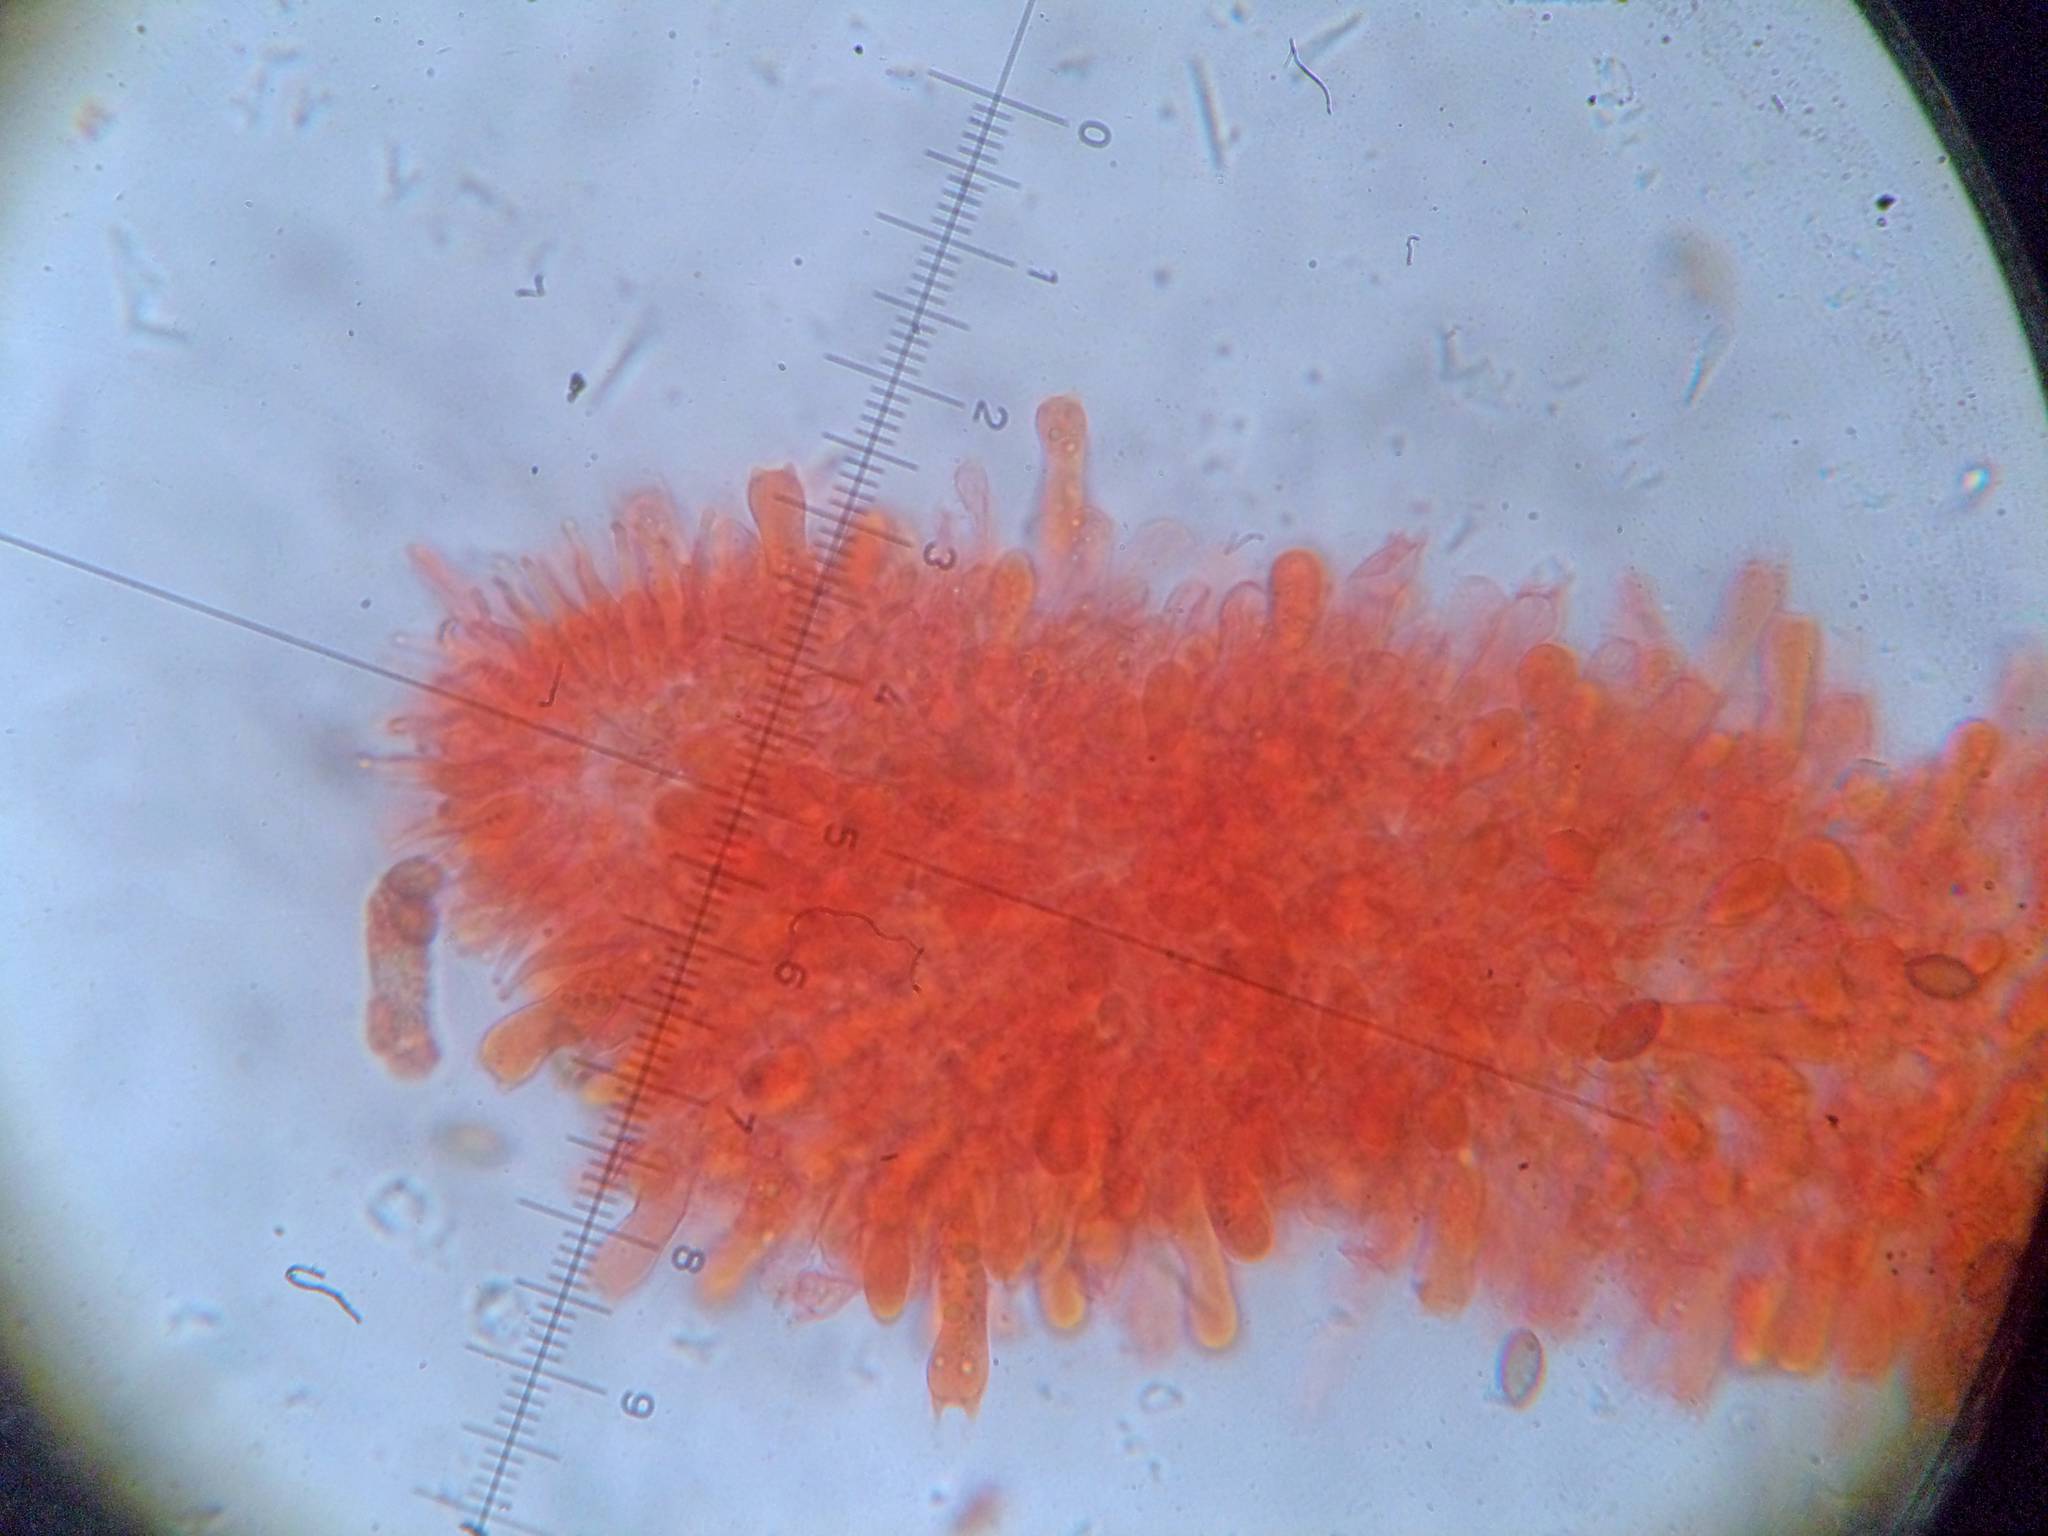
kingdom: Fungi
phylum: Basidiomycota
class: Agaricomycetes
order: Agaricales
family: Hymenogastraceae
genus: Psilocybe
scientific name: Psilocybe semilanceata
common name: Liberty cap
